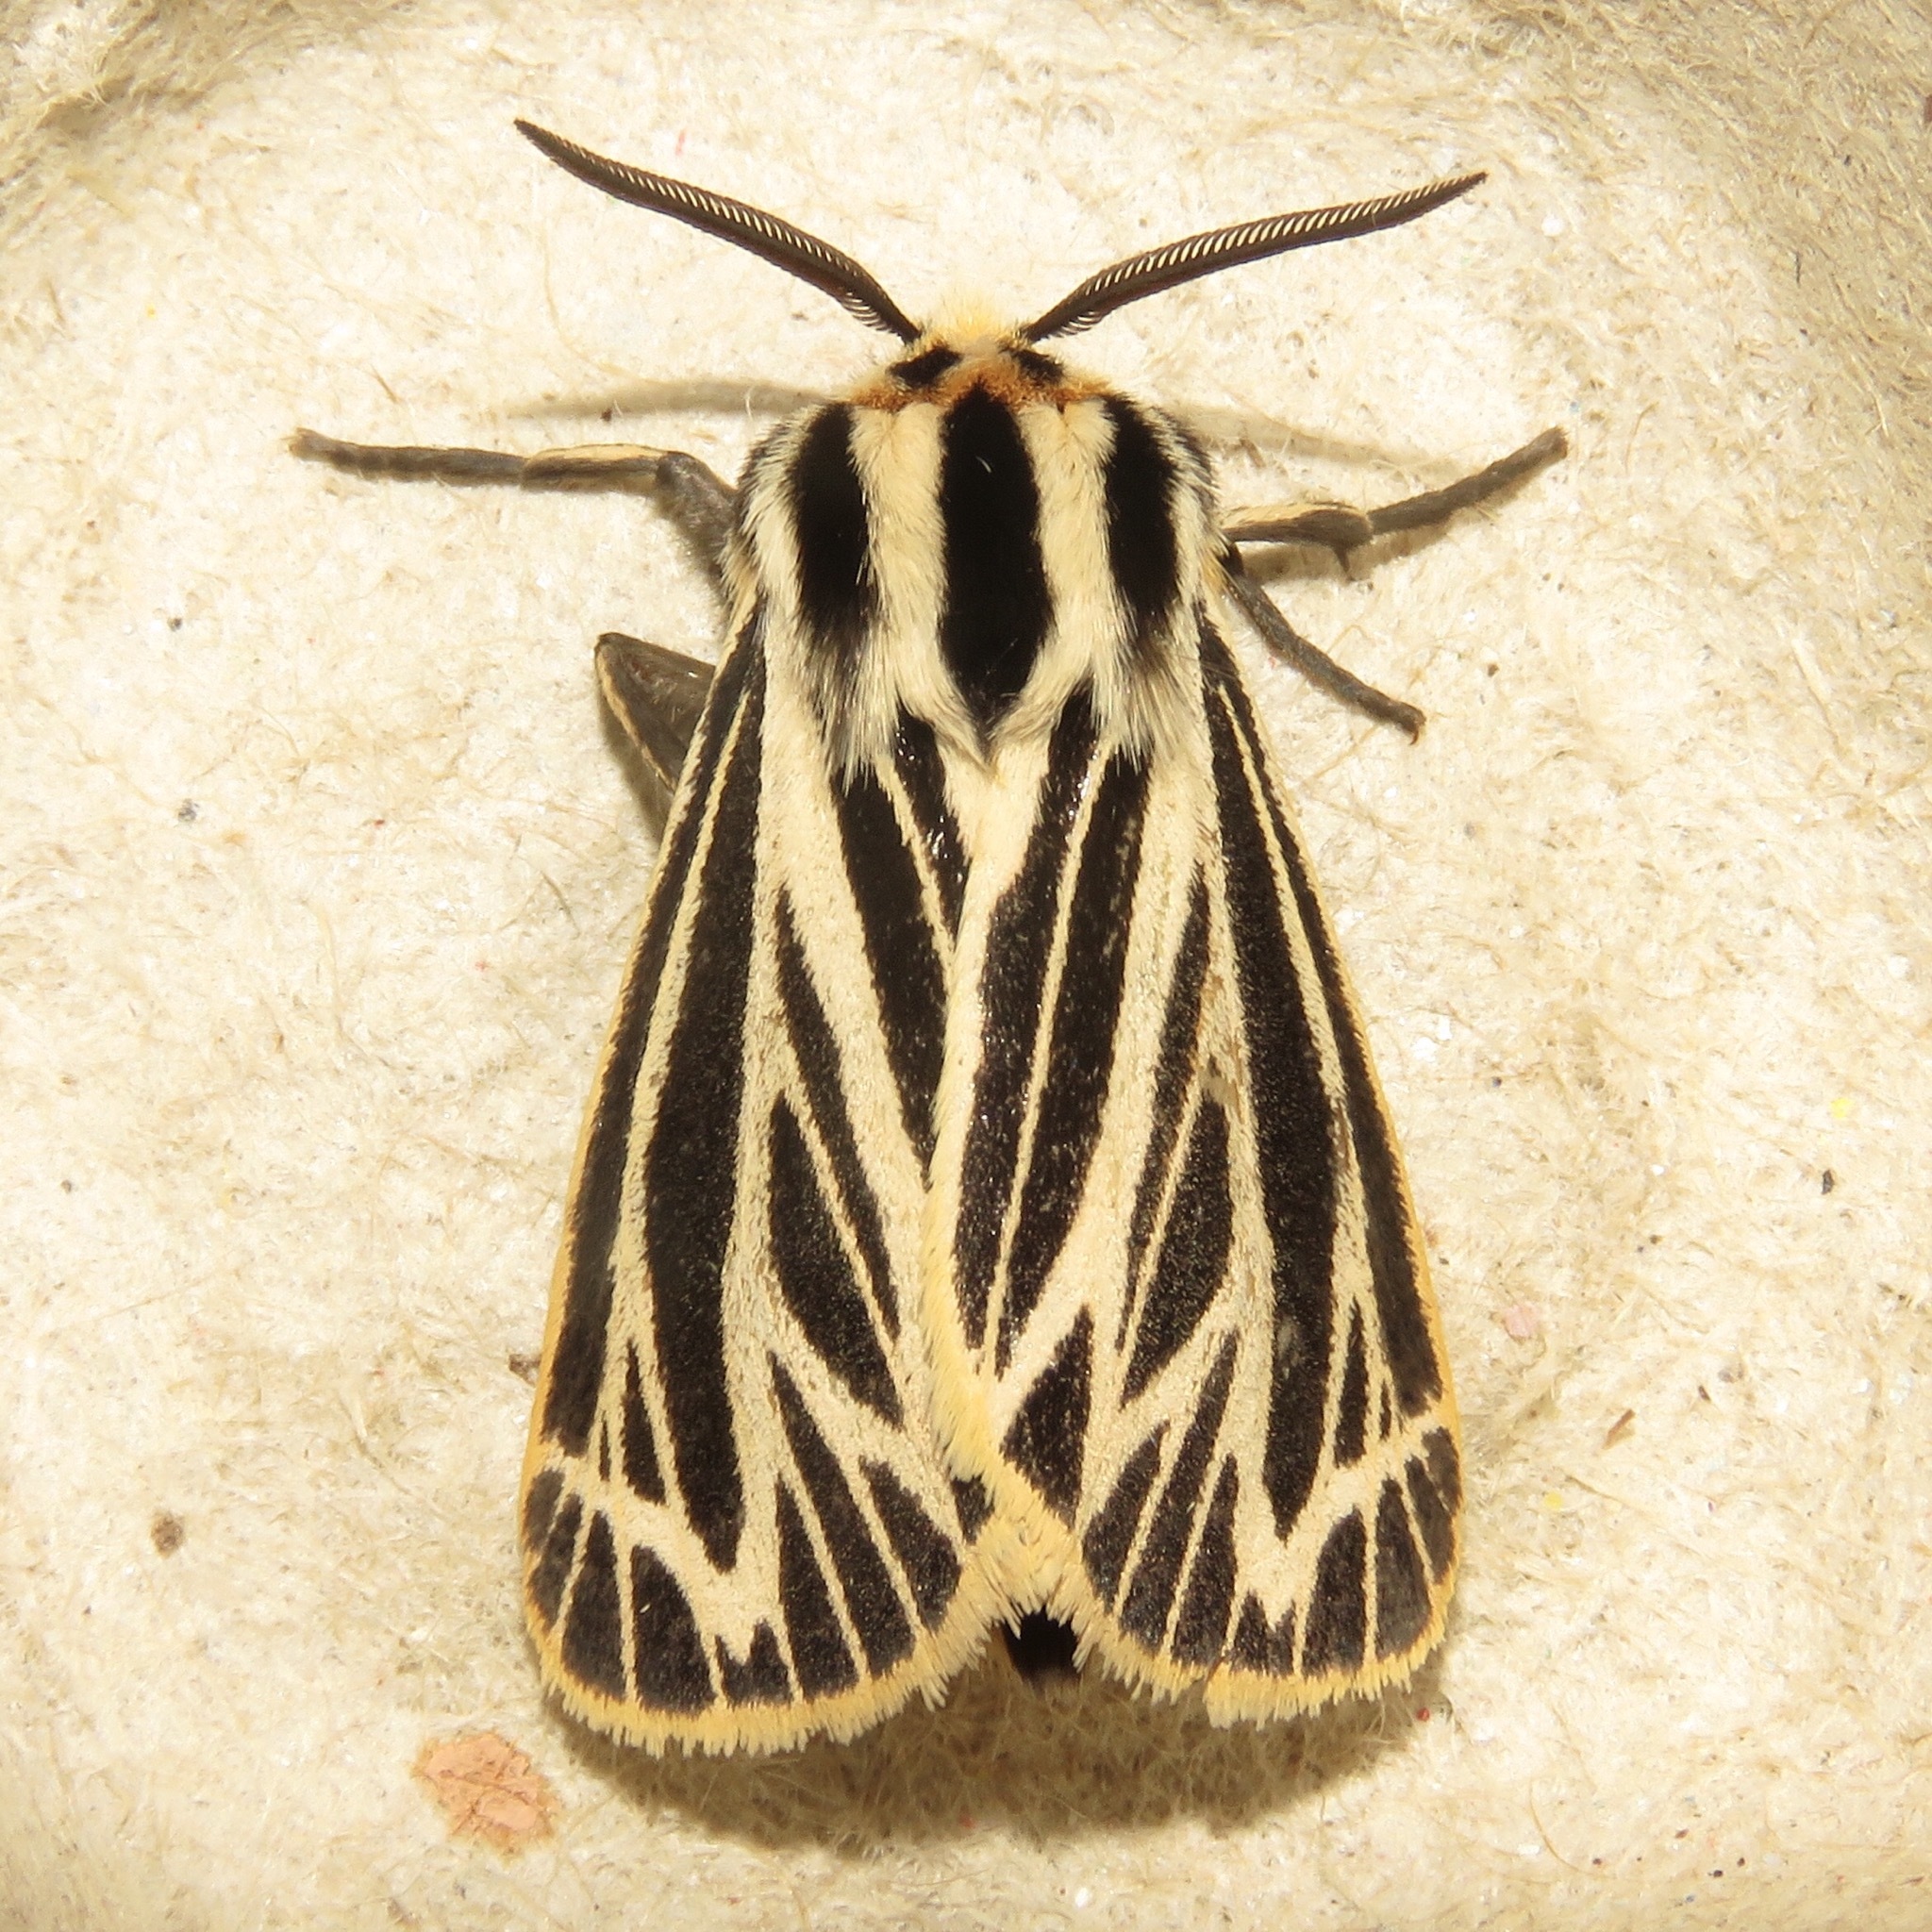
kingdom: Animalia
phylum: Arthropoda
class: Insecta
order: Lepidoptera
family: Erebidae
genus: Grammia
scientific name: Grammia virguncula
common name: Little tiger moth
